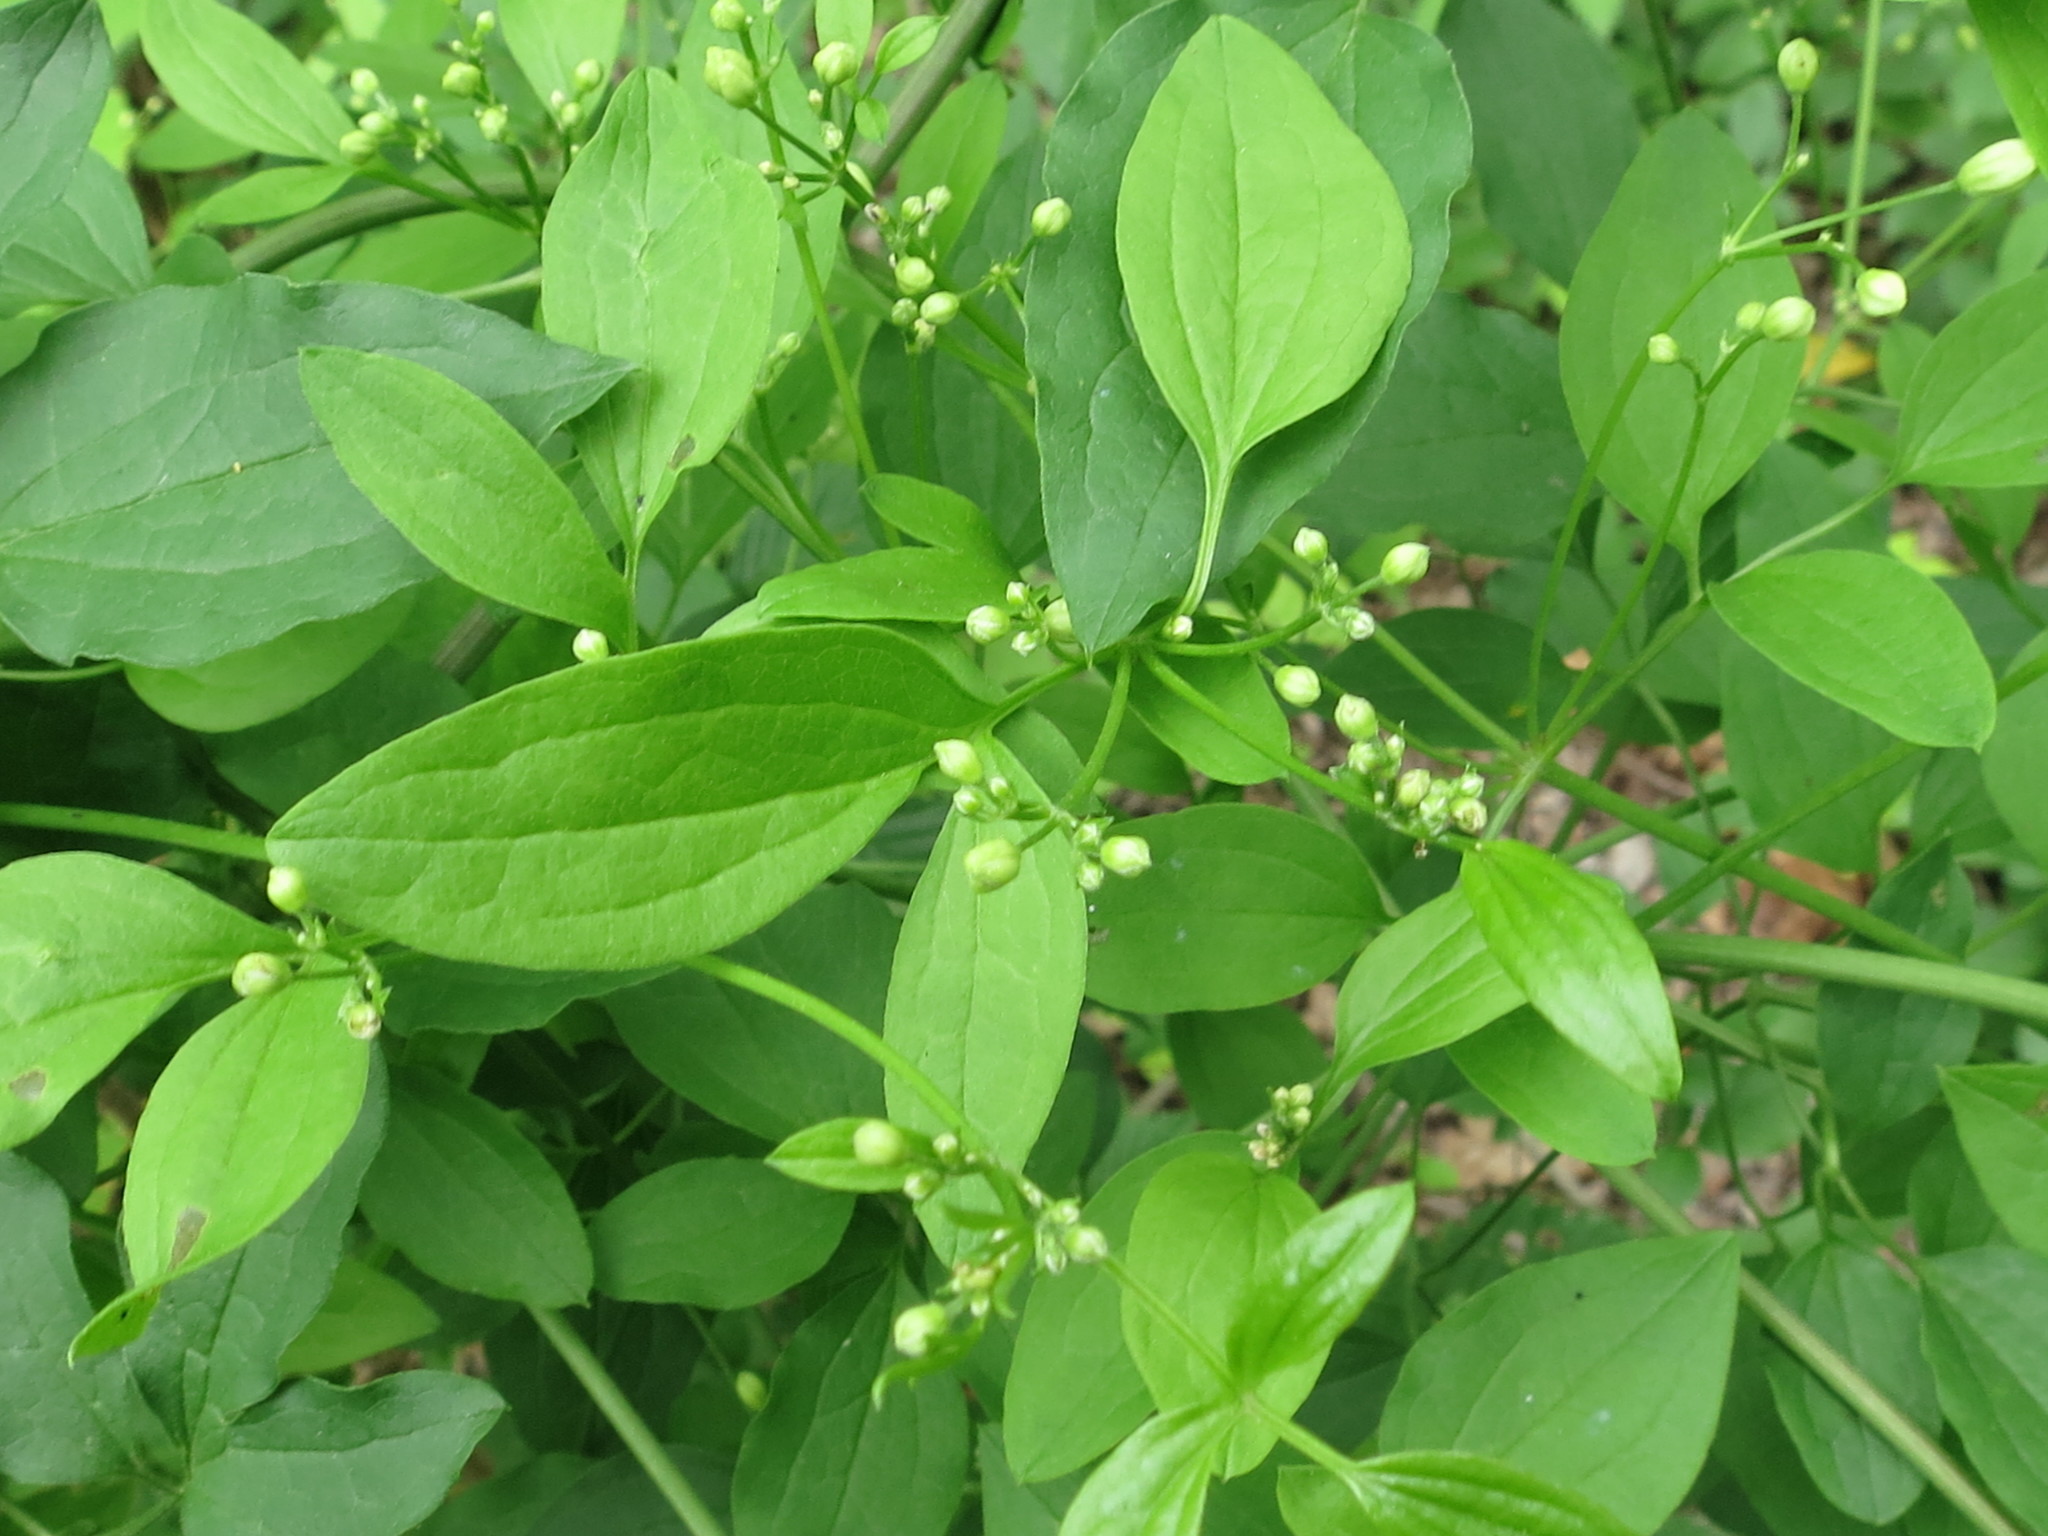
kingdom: Plantae
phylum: Tracheophyta
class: Magnoliopsida
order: Ranunculales
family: Ranunculaceae
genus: Clematis
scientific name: Clematis terniflora
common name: Sweet autumn clematis
